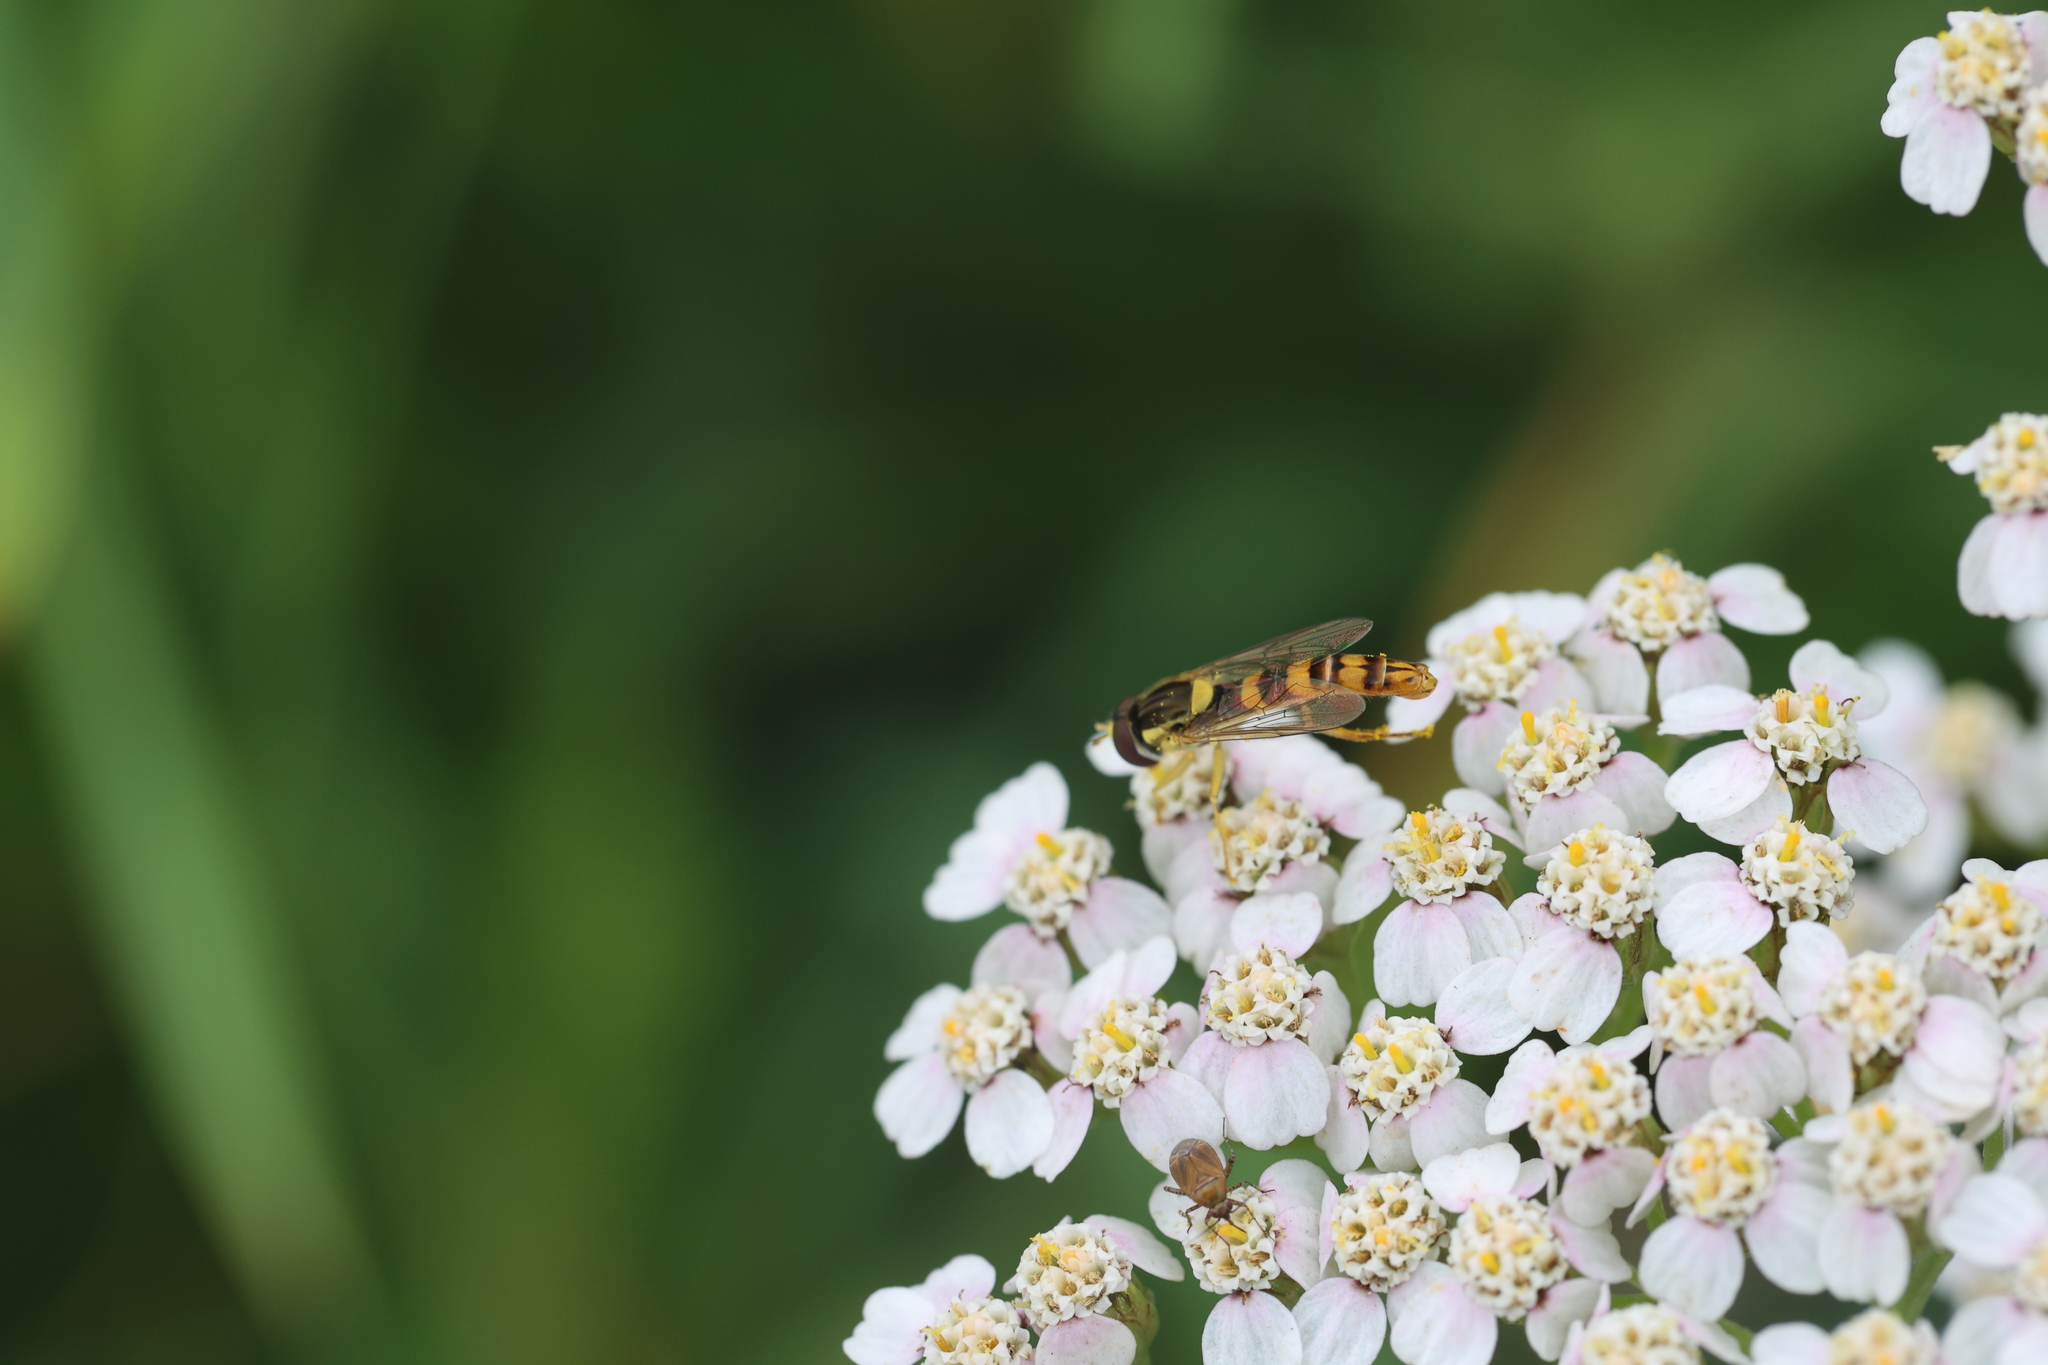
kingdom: Animalia
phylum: Arthropoda
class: Insecta
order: Diptera
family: Syrphidae
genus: Sphaerophoria
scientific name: Sphaerophoria scripta
